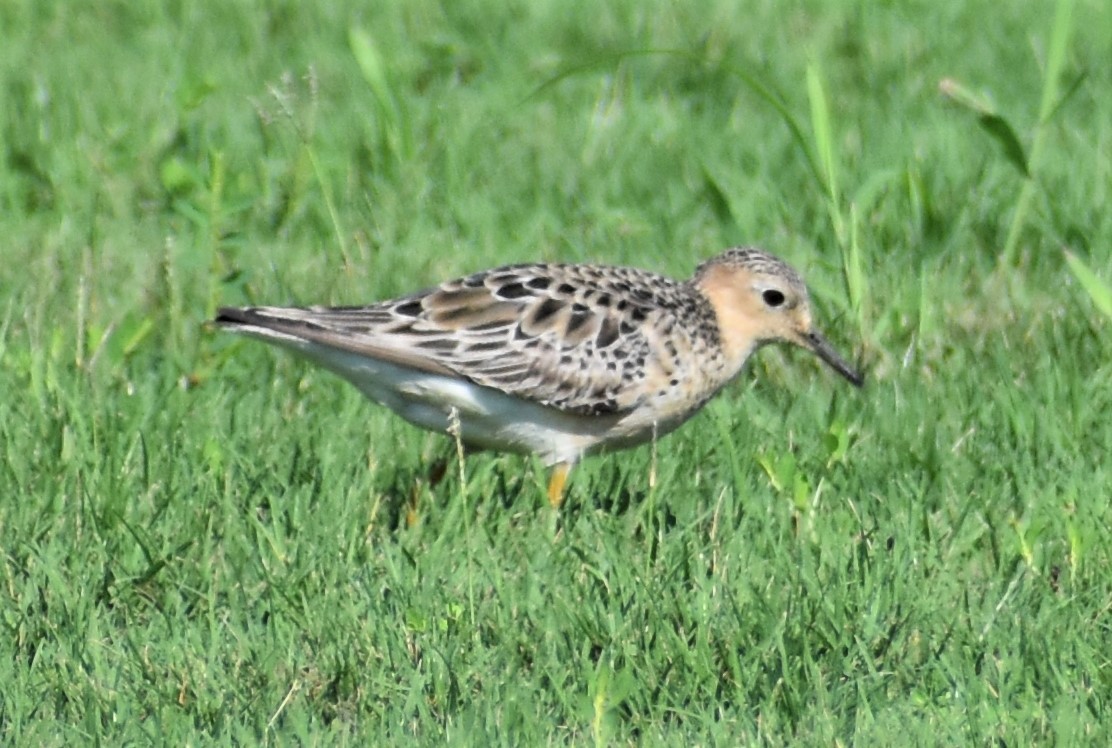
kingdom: Animalia
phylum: Chordata
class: Aves
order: Charadriiformes
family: Scolopacidae
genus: Calidris
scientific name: Calidris subruficollis
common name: Buff-breasted sandpiper
